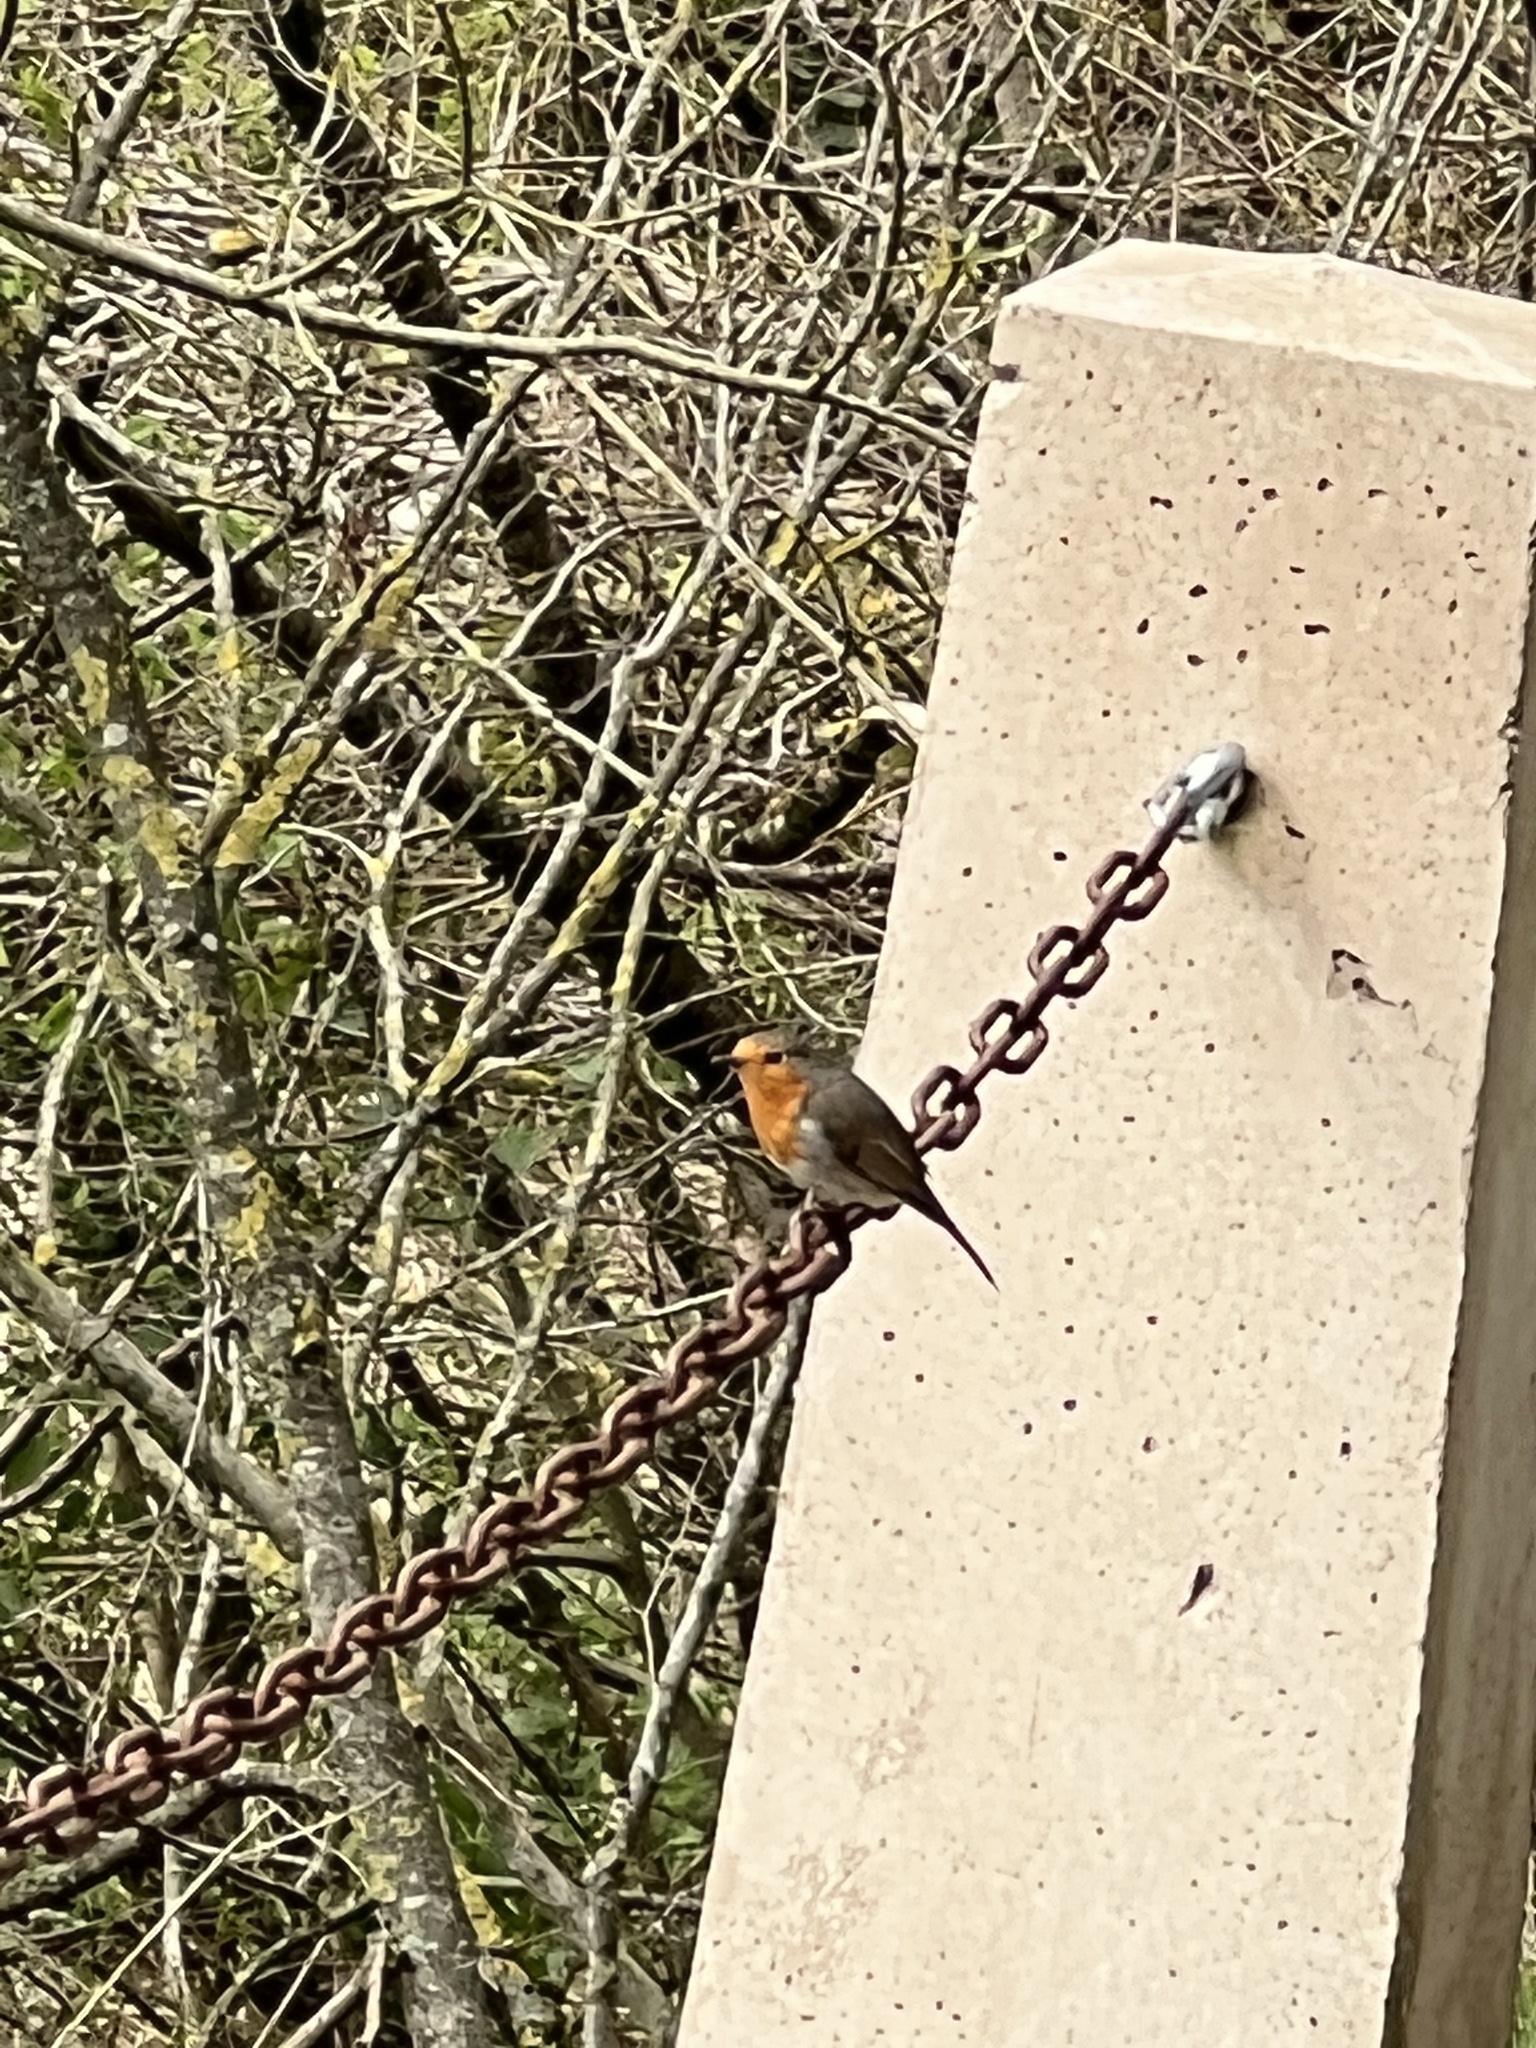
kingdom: Animalia
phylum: Chordata
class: Aves
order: Passeriformes
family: Muscicapidae
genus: Erithacus
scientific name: Erithacus rubecula
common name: European robin
